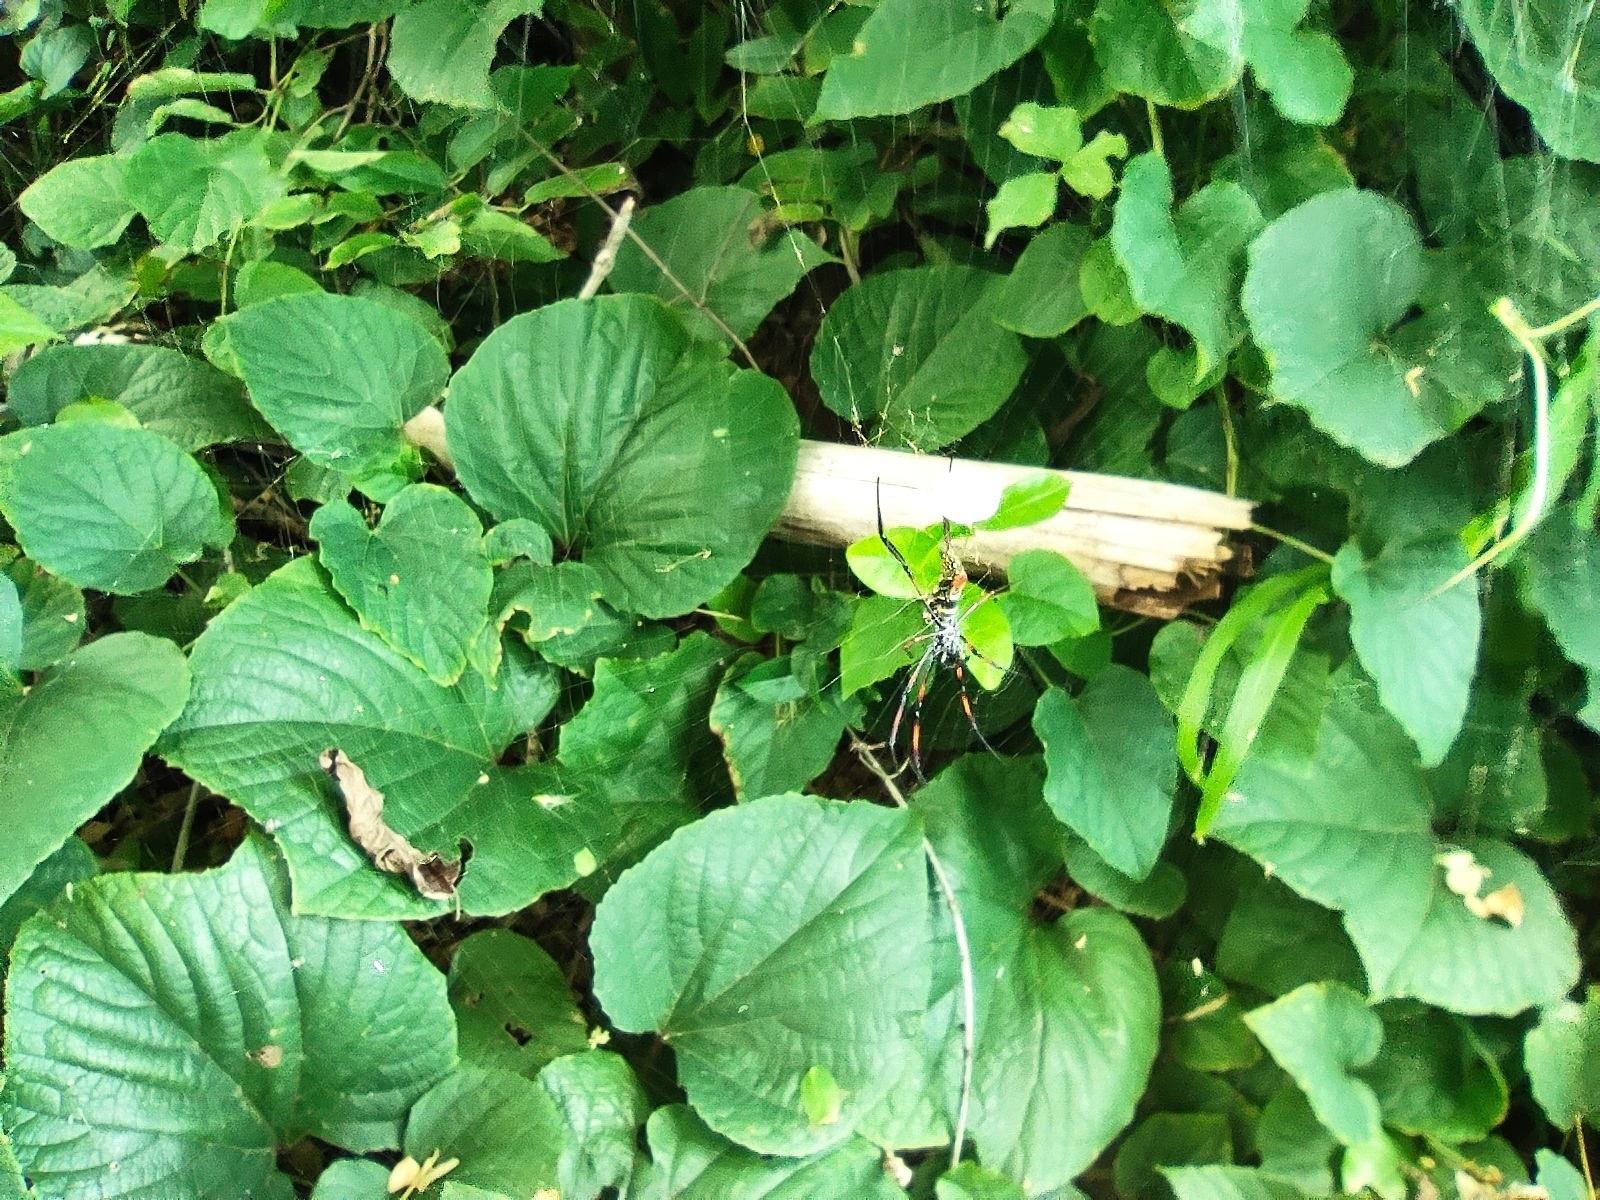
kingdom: Animalia
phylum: Arthropoda
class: Arachnida
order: Araneae
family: Araneidae
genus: Nephila
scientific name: Nephila comorana
